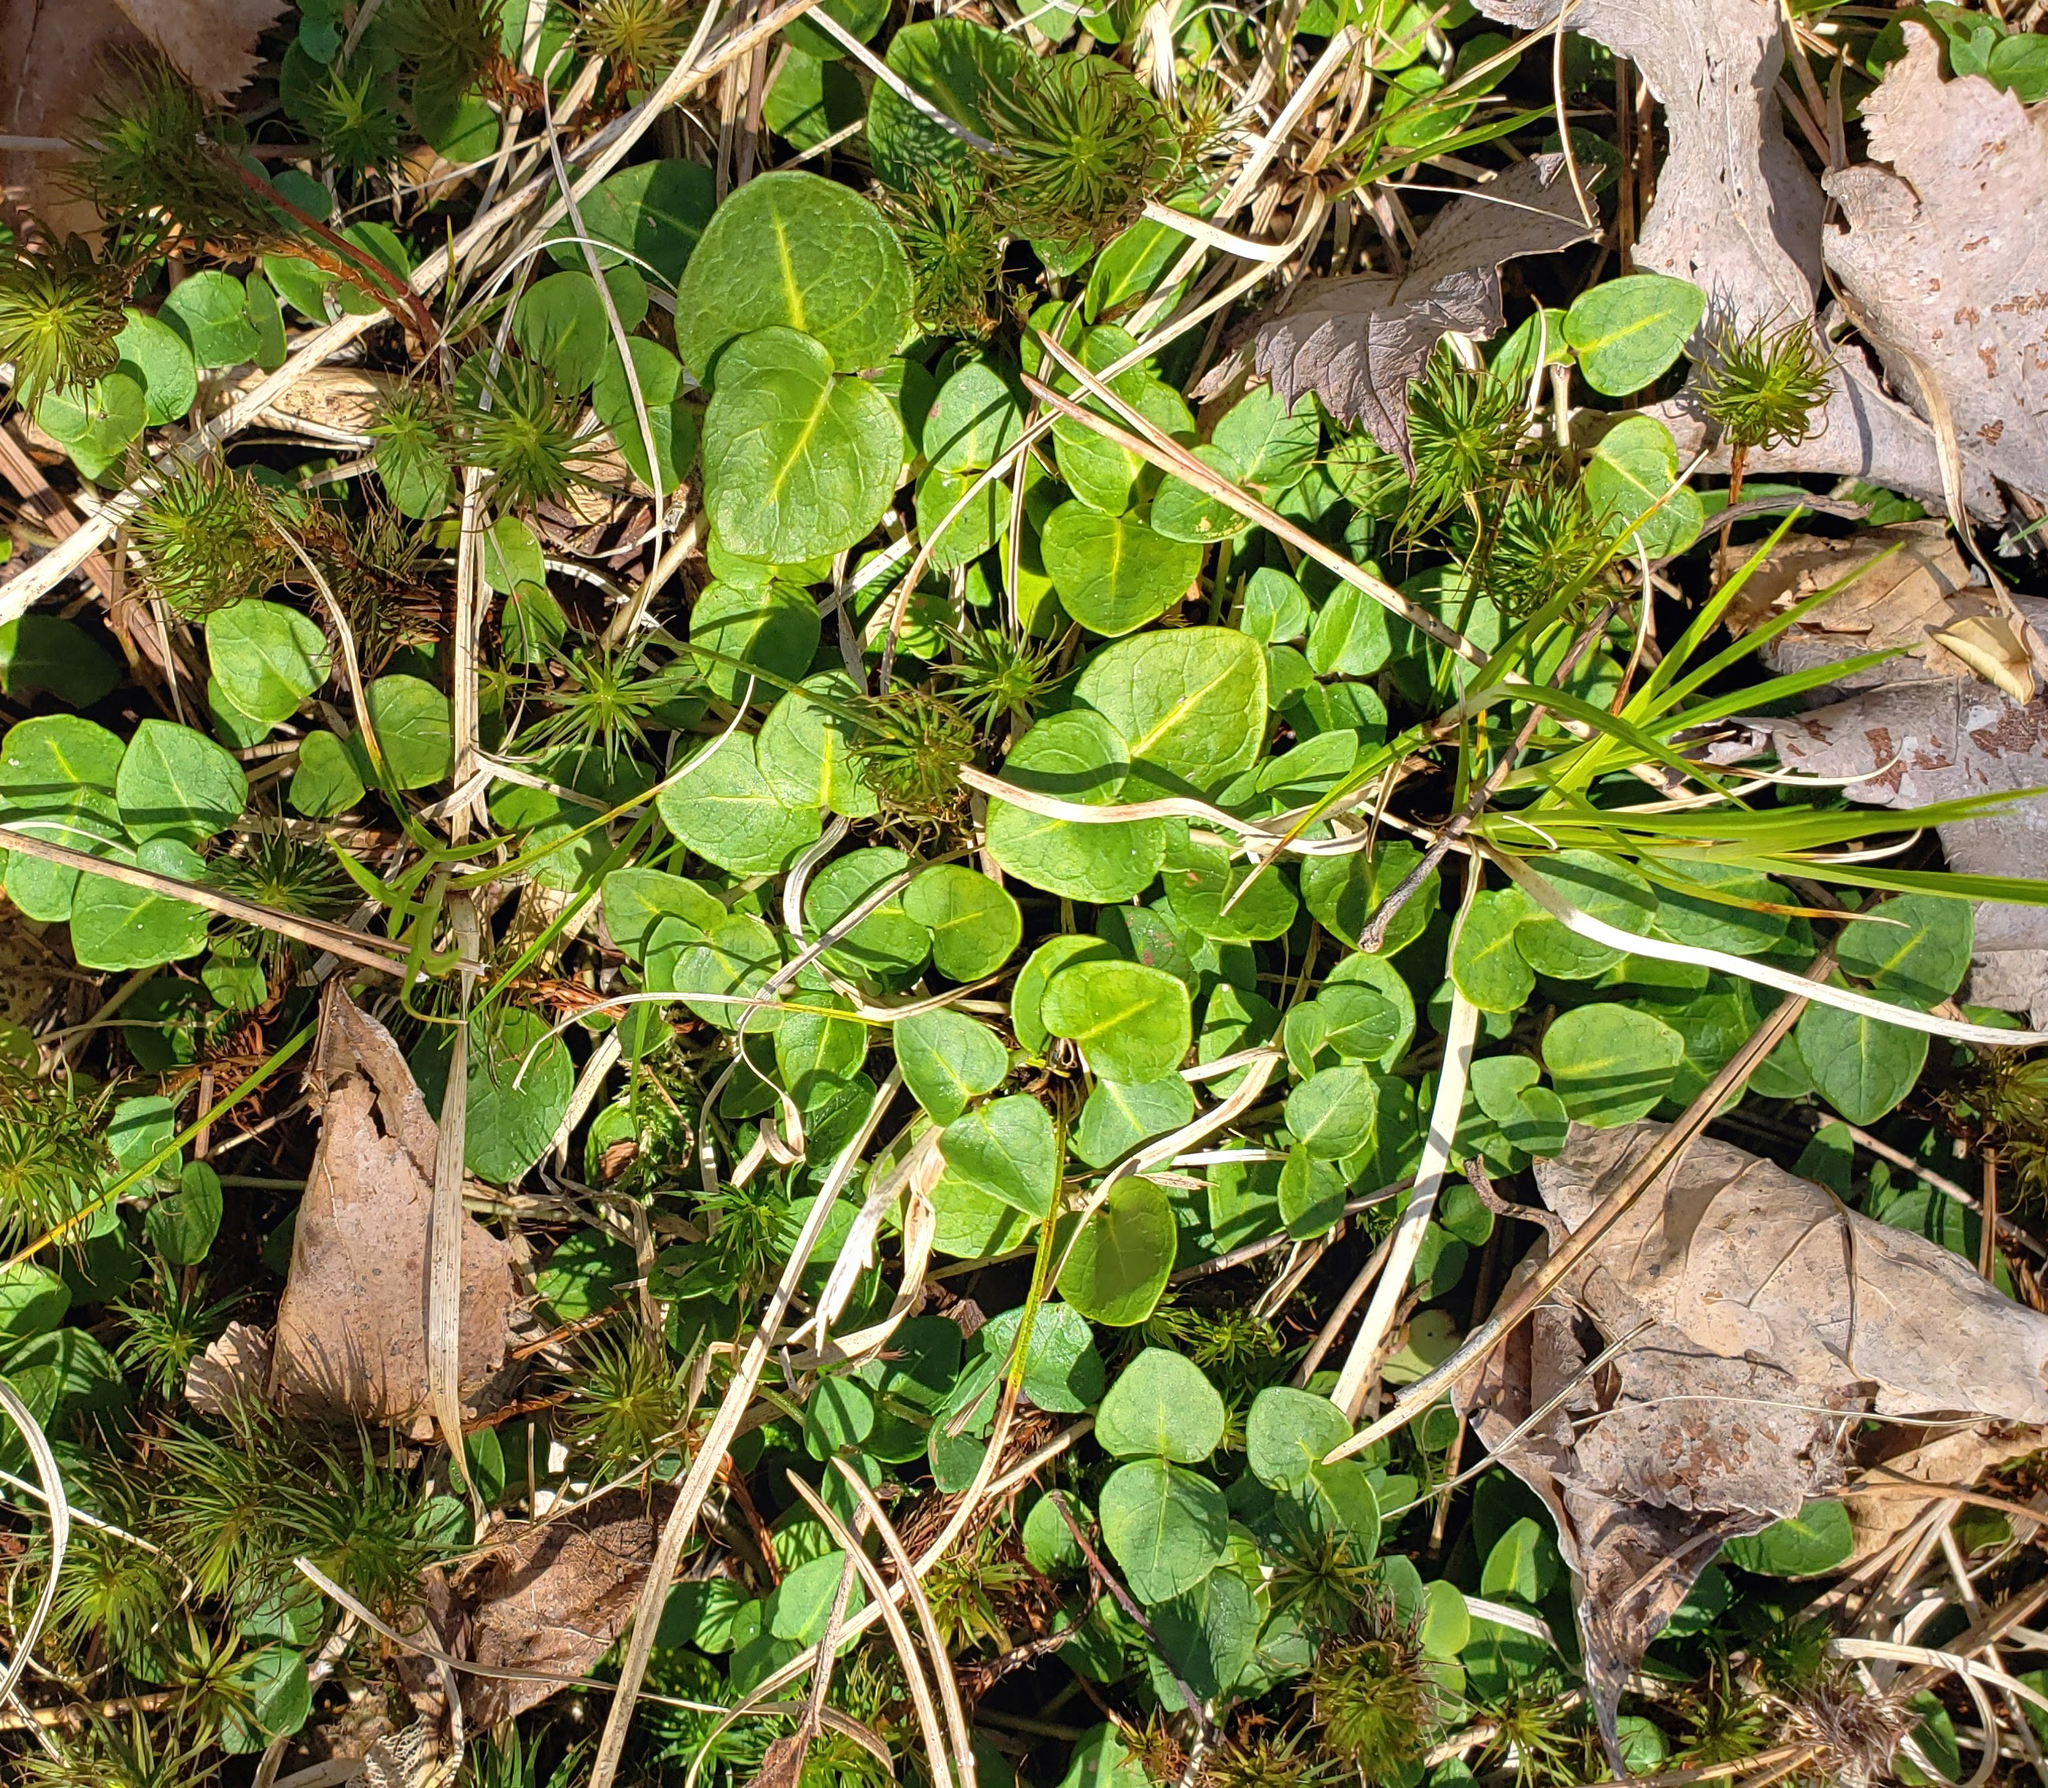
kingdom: Plantae
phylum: Tracheophyta
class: Magnoliopsida
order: Gentianales
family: Rubiaceae
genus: Mitchella
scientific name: Mitchella repens
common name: Partridge-berry
